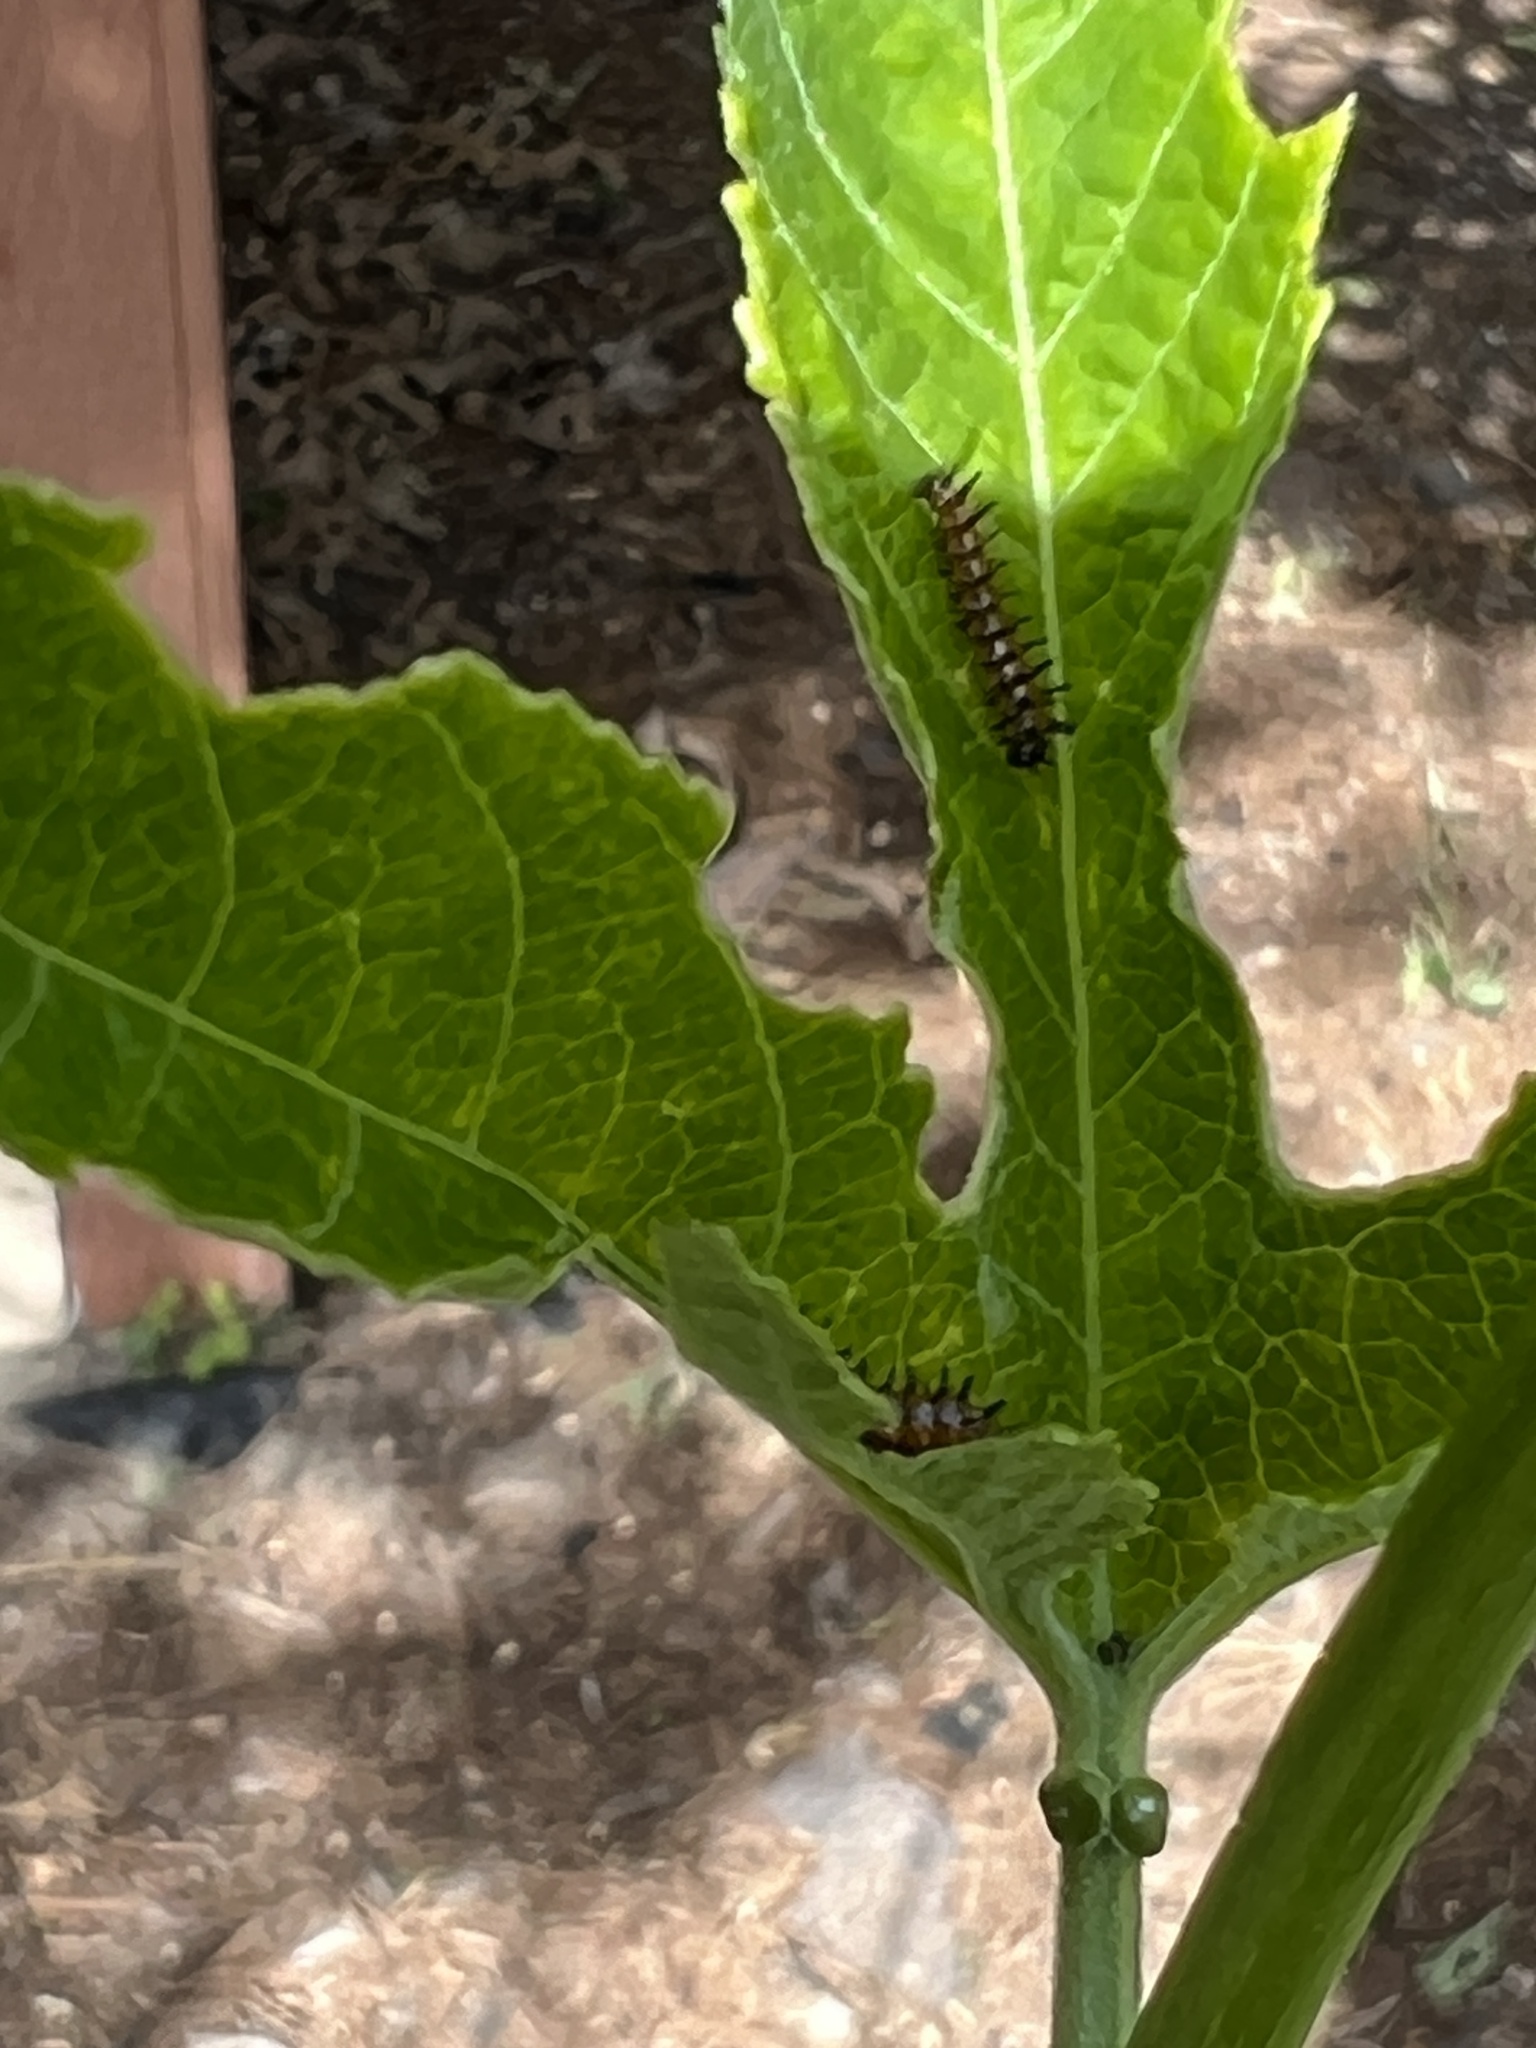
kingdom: Animalia
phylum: Arthropoda
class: Insecta
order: Lepidoptera
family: Nymphalidae
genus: Dione
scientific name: Dione vanillae
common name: Gulf fritillary
